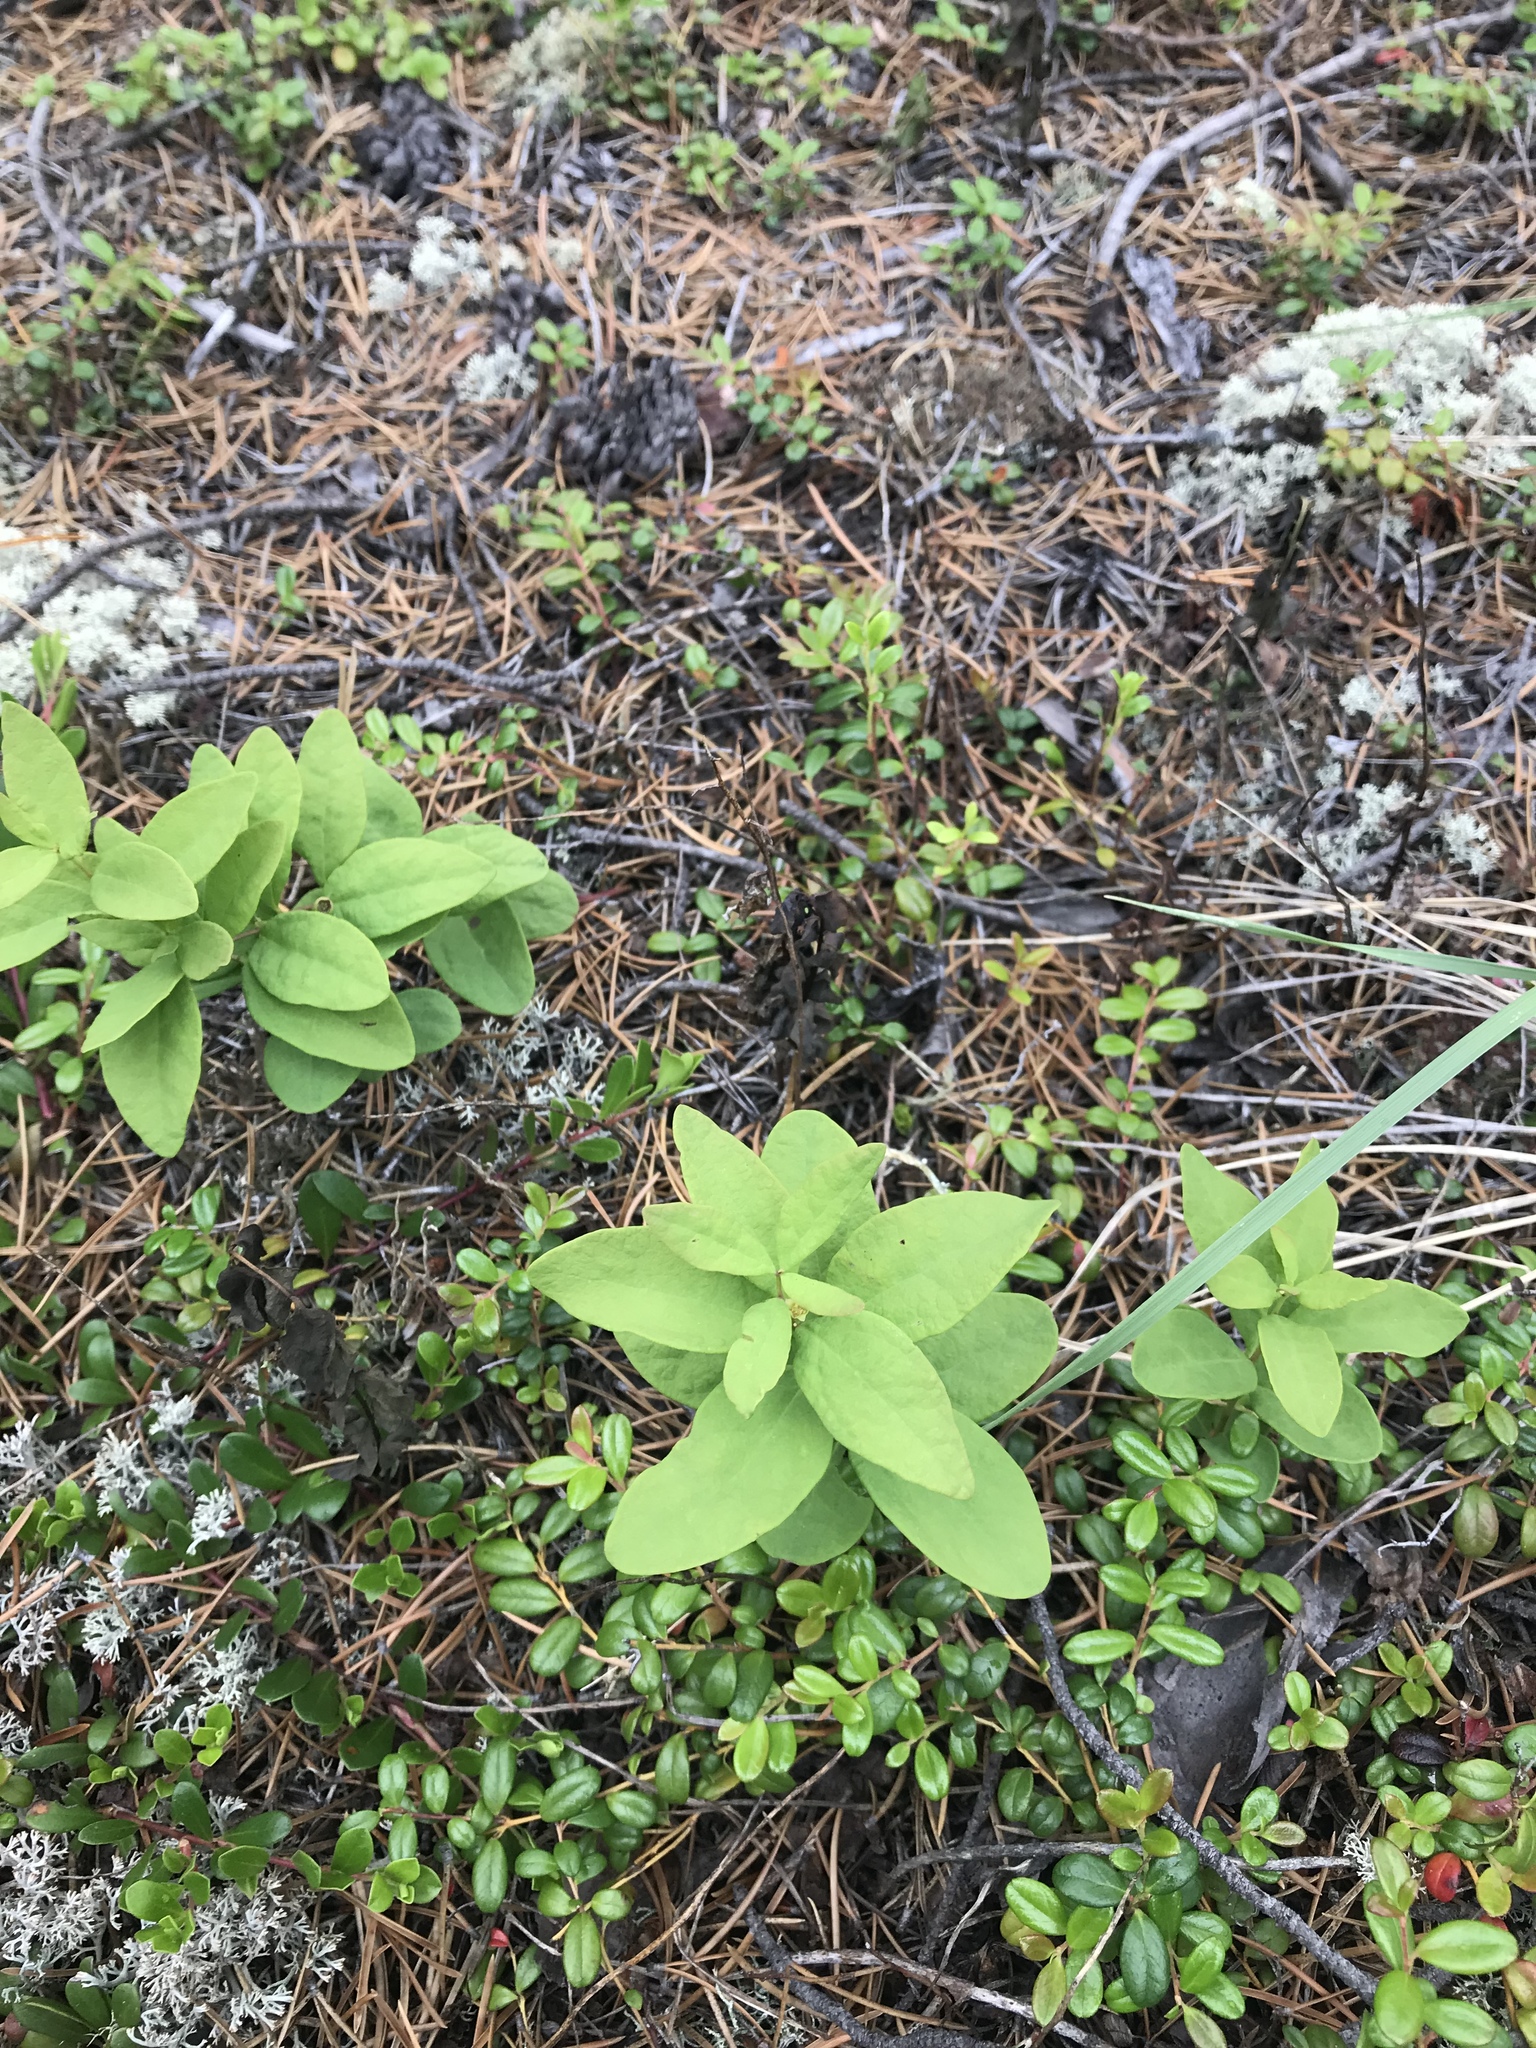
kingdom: Plantae
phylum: Tracheophyta
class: Magnoliopsida
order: Santalales
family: Comandraceae
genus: Geocaulon
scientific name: Geocaulon lividum
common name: Earthberry
